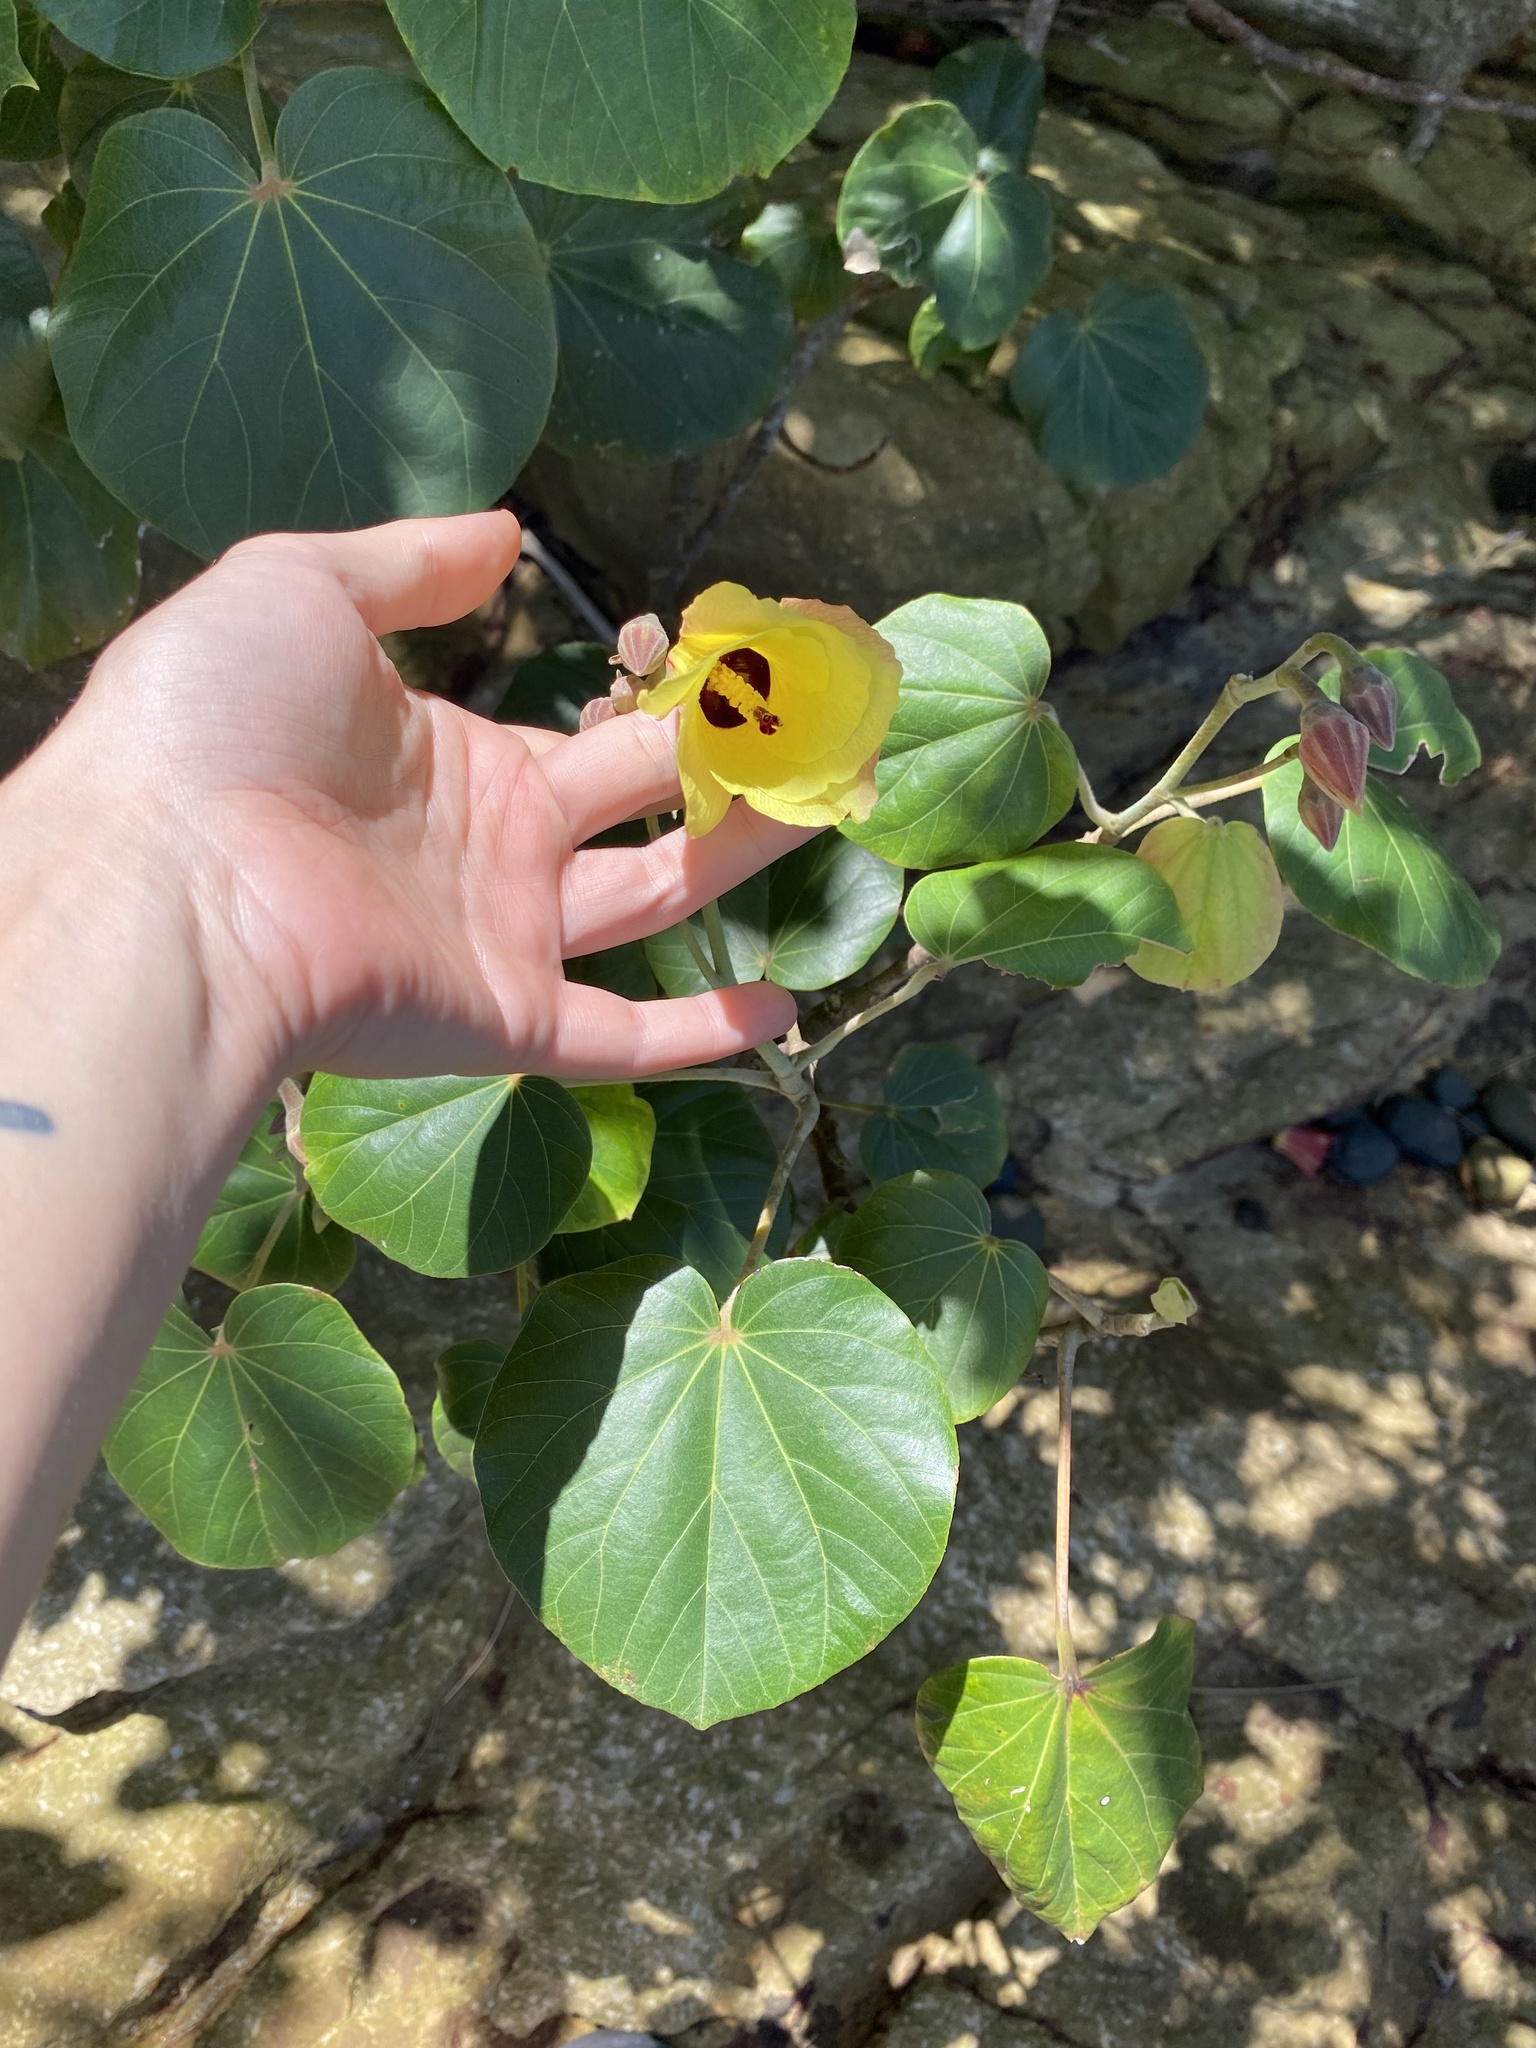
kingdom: Plantae
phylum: Tracheophyta
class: Magnoliopsida
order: Malvales
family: Malvaceae
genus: Talipariti
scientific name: Talipariti tiliaceum
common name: Sea hibiscus
